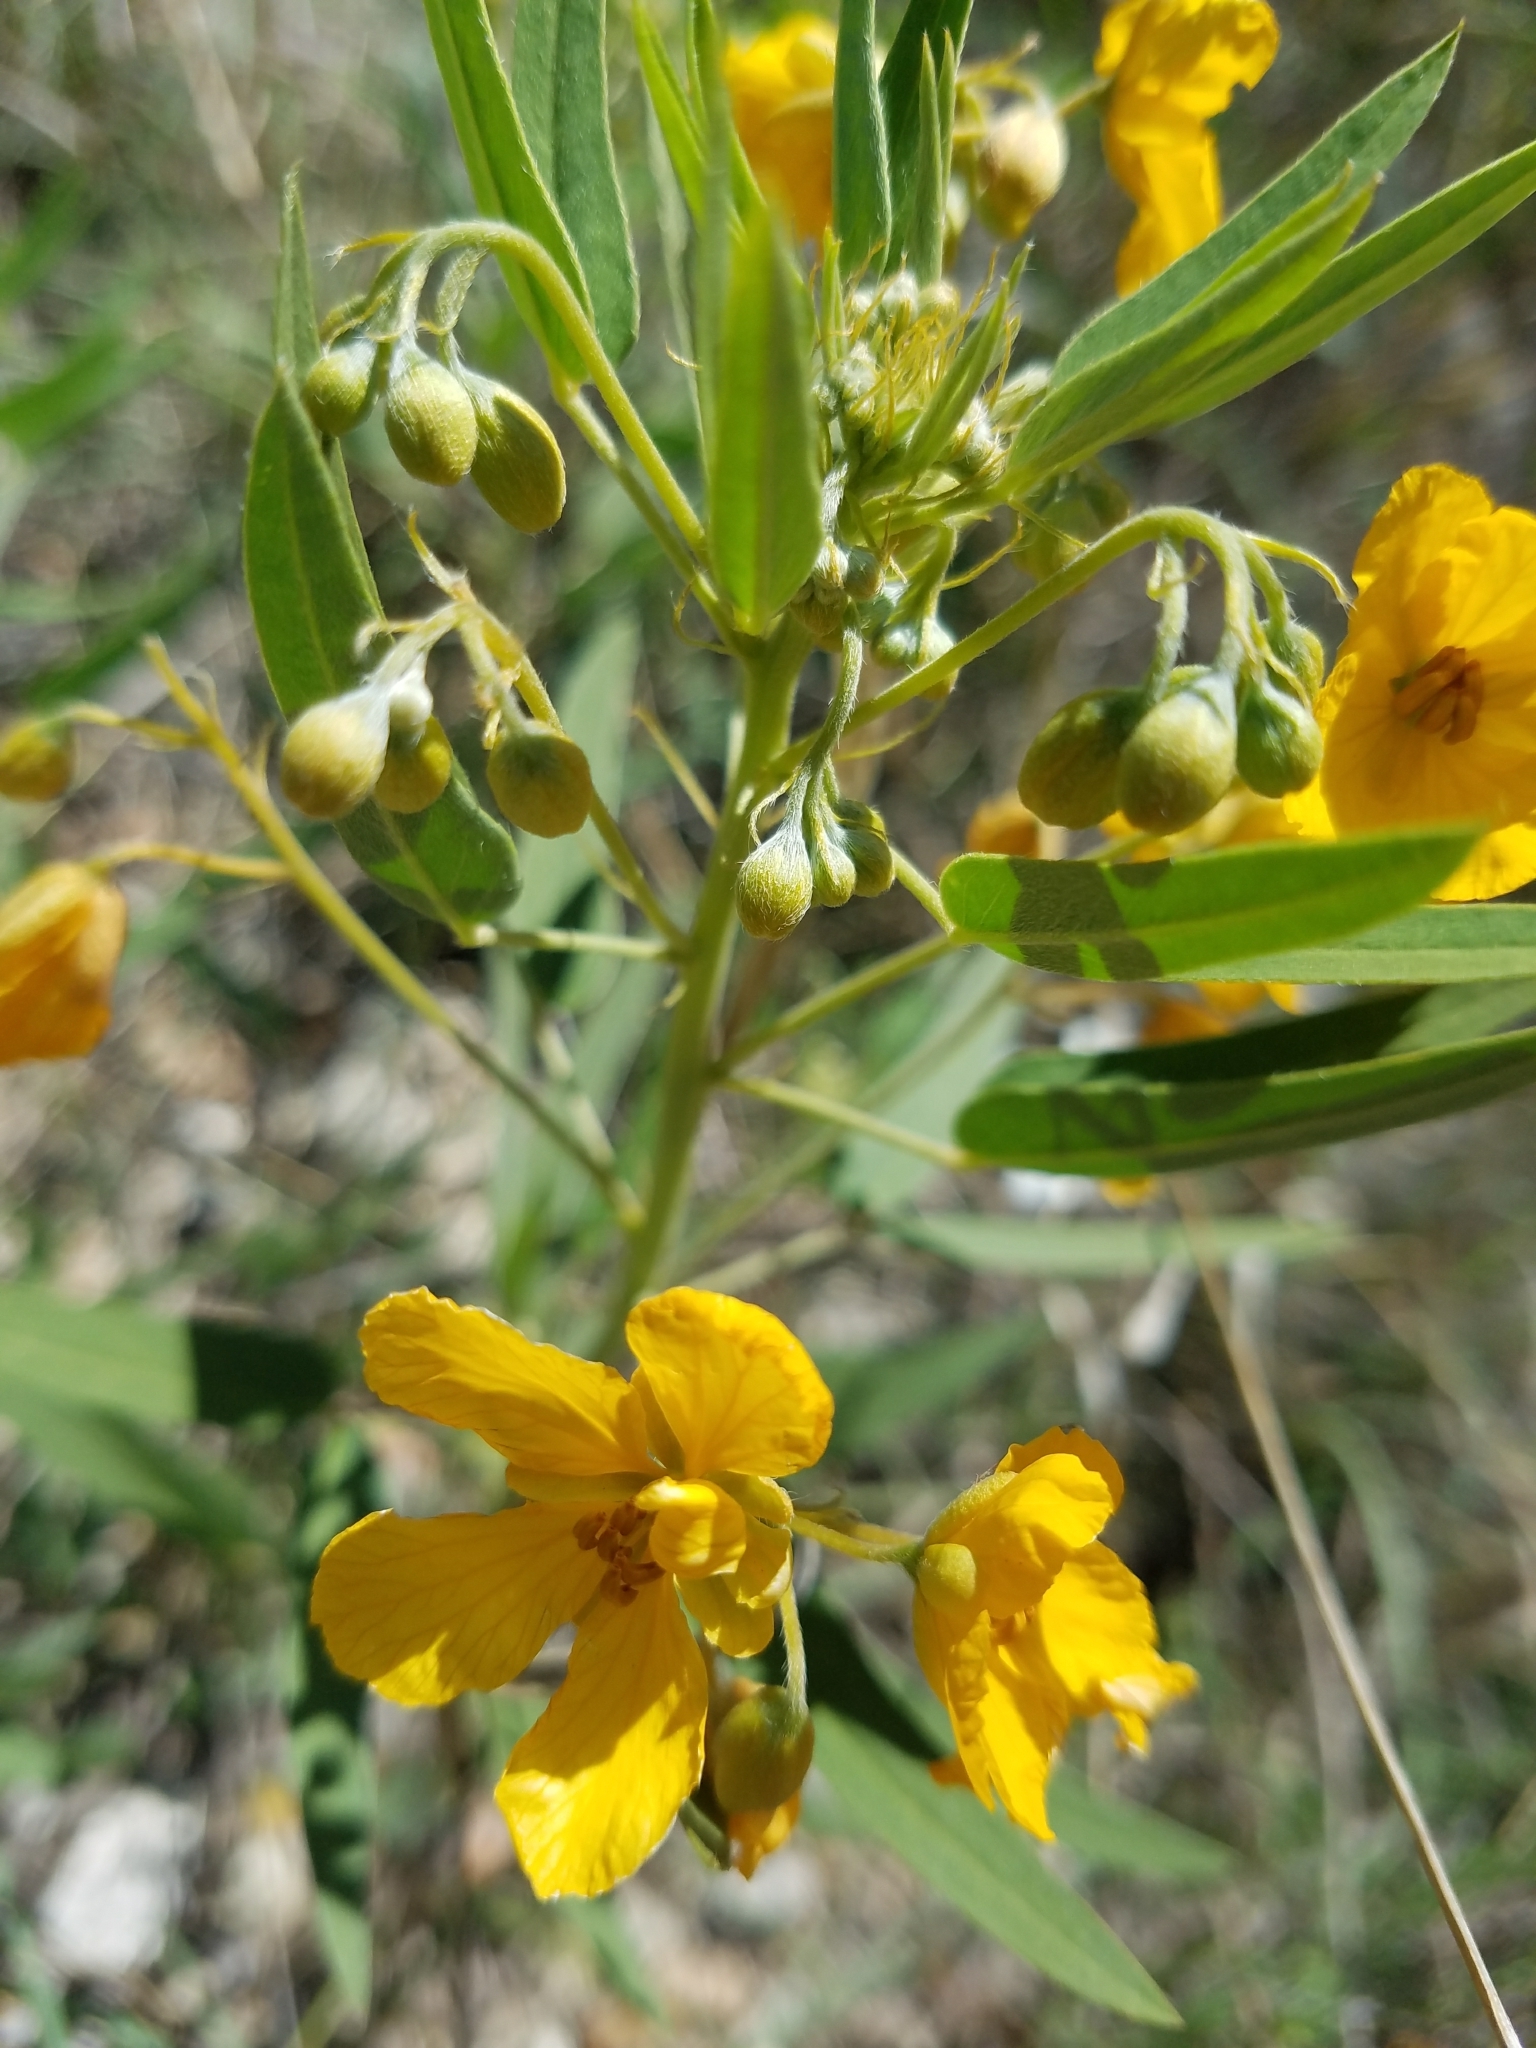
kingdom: Plantae
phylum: Tracheophyta
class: Magnoliopsida
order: Fabales
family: Fabaceae
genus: Senna
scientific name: Senna roemeriana
